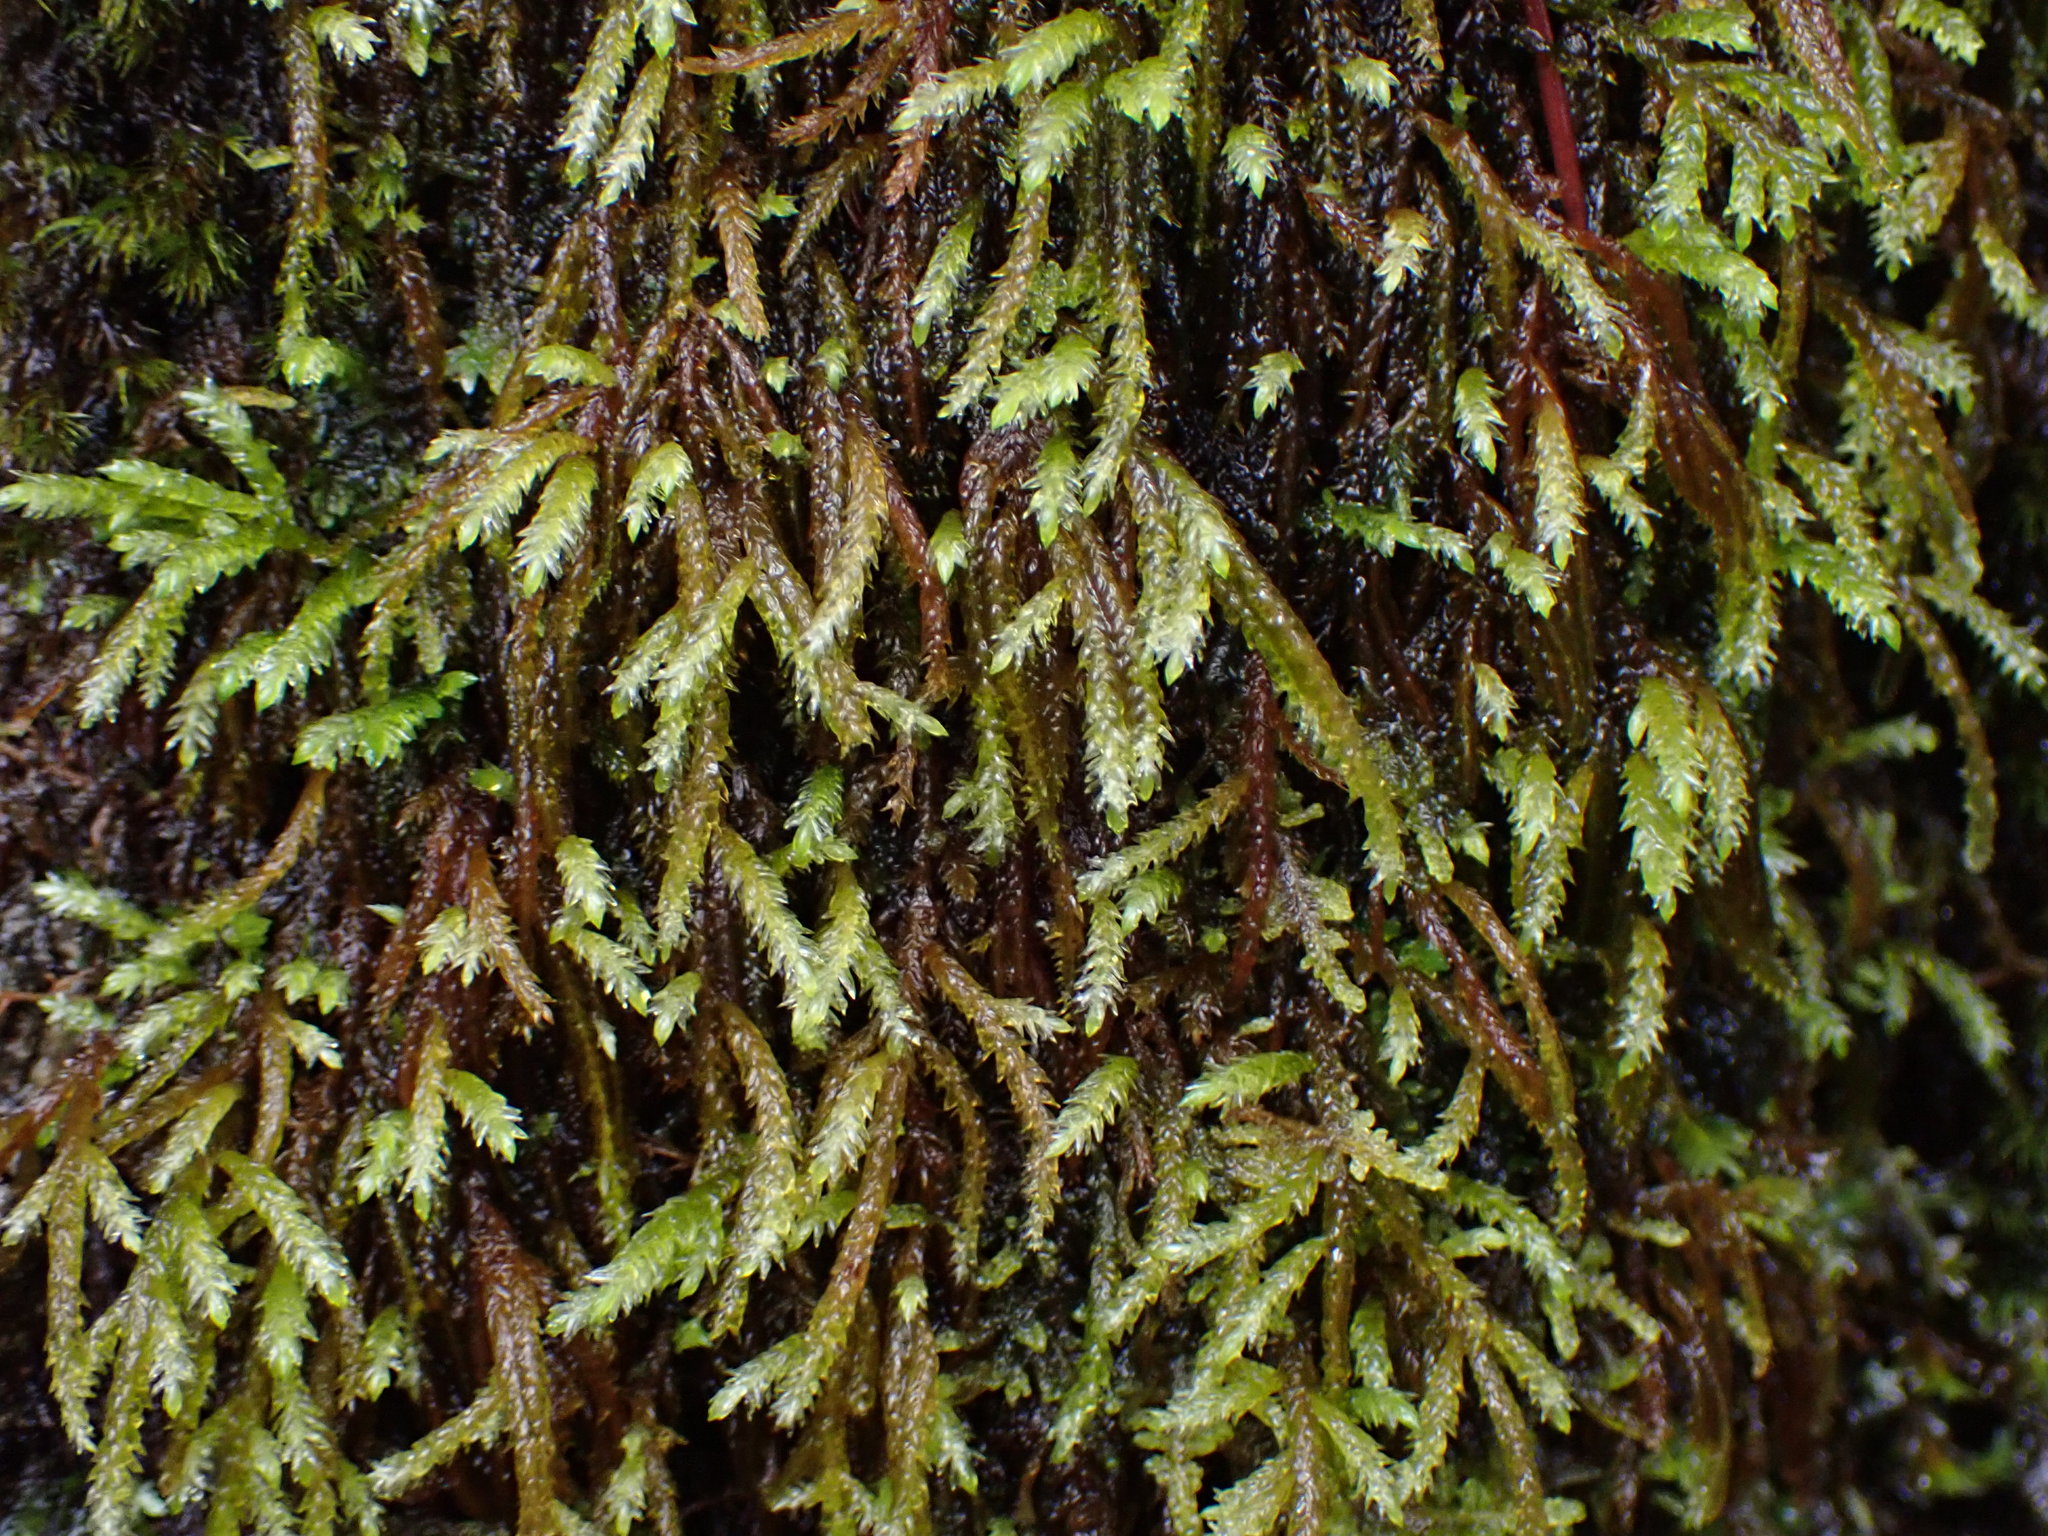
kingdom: Plantae
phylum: Bryophyta
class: Bryopsida
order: Hypnales
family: Brachytheciaceae
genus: Scleropodium
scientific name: Scleropodium obtusifolium
